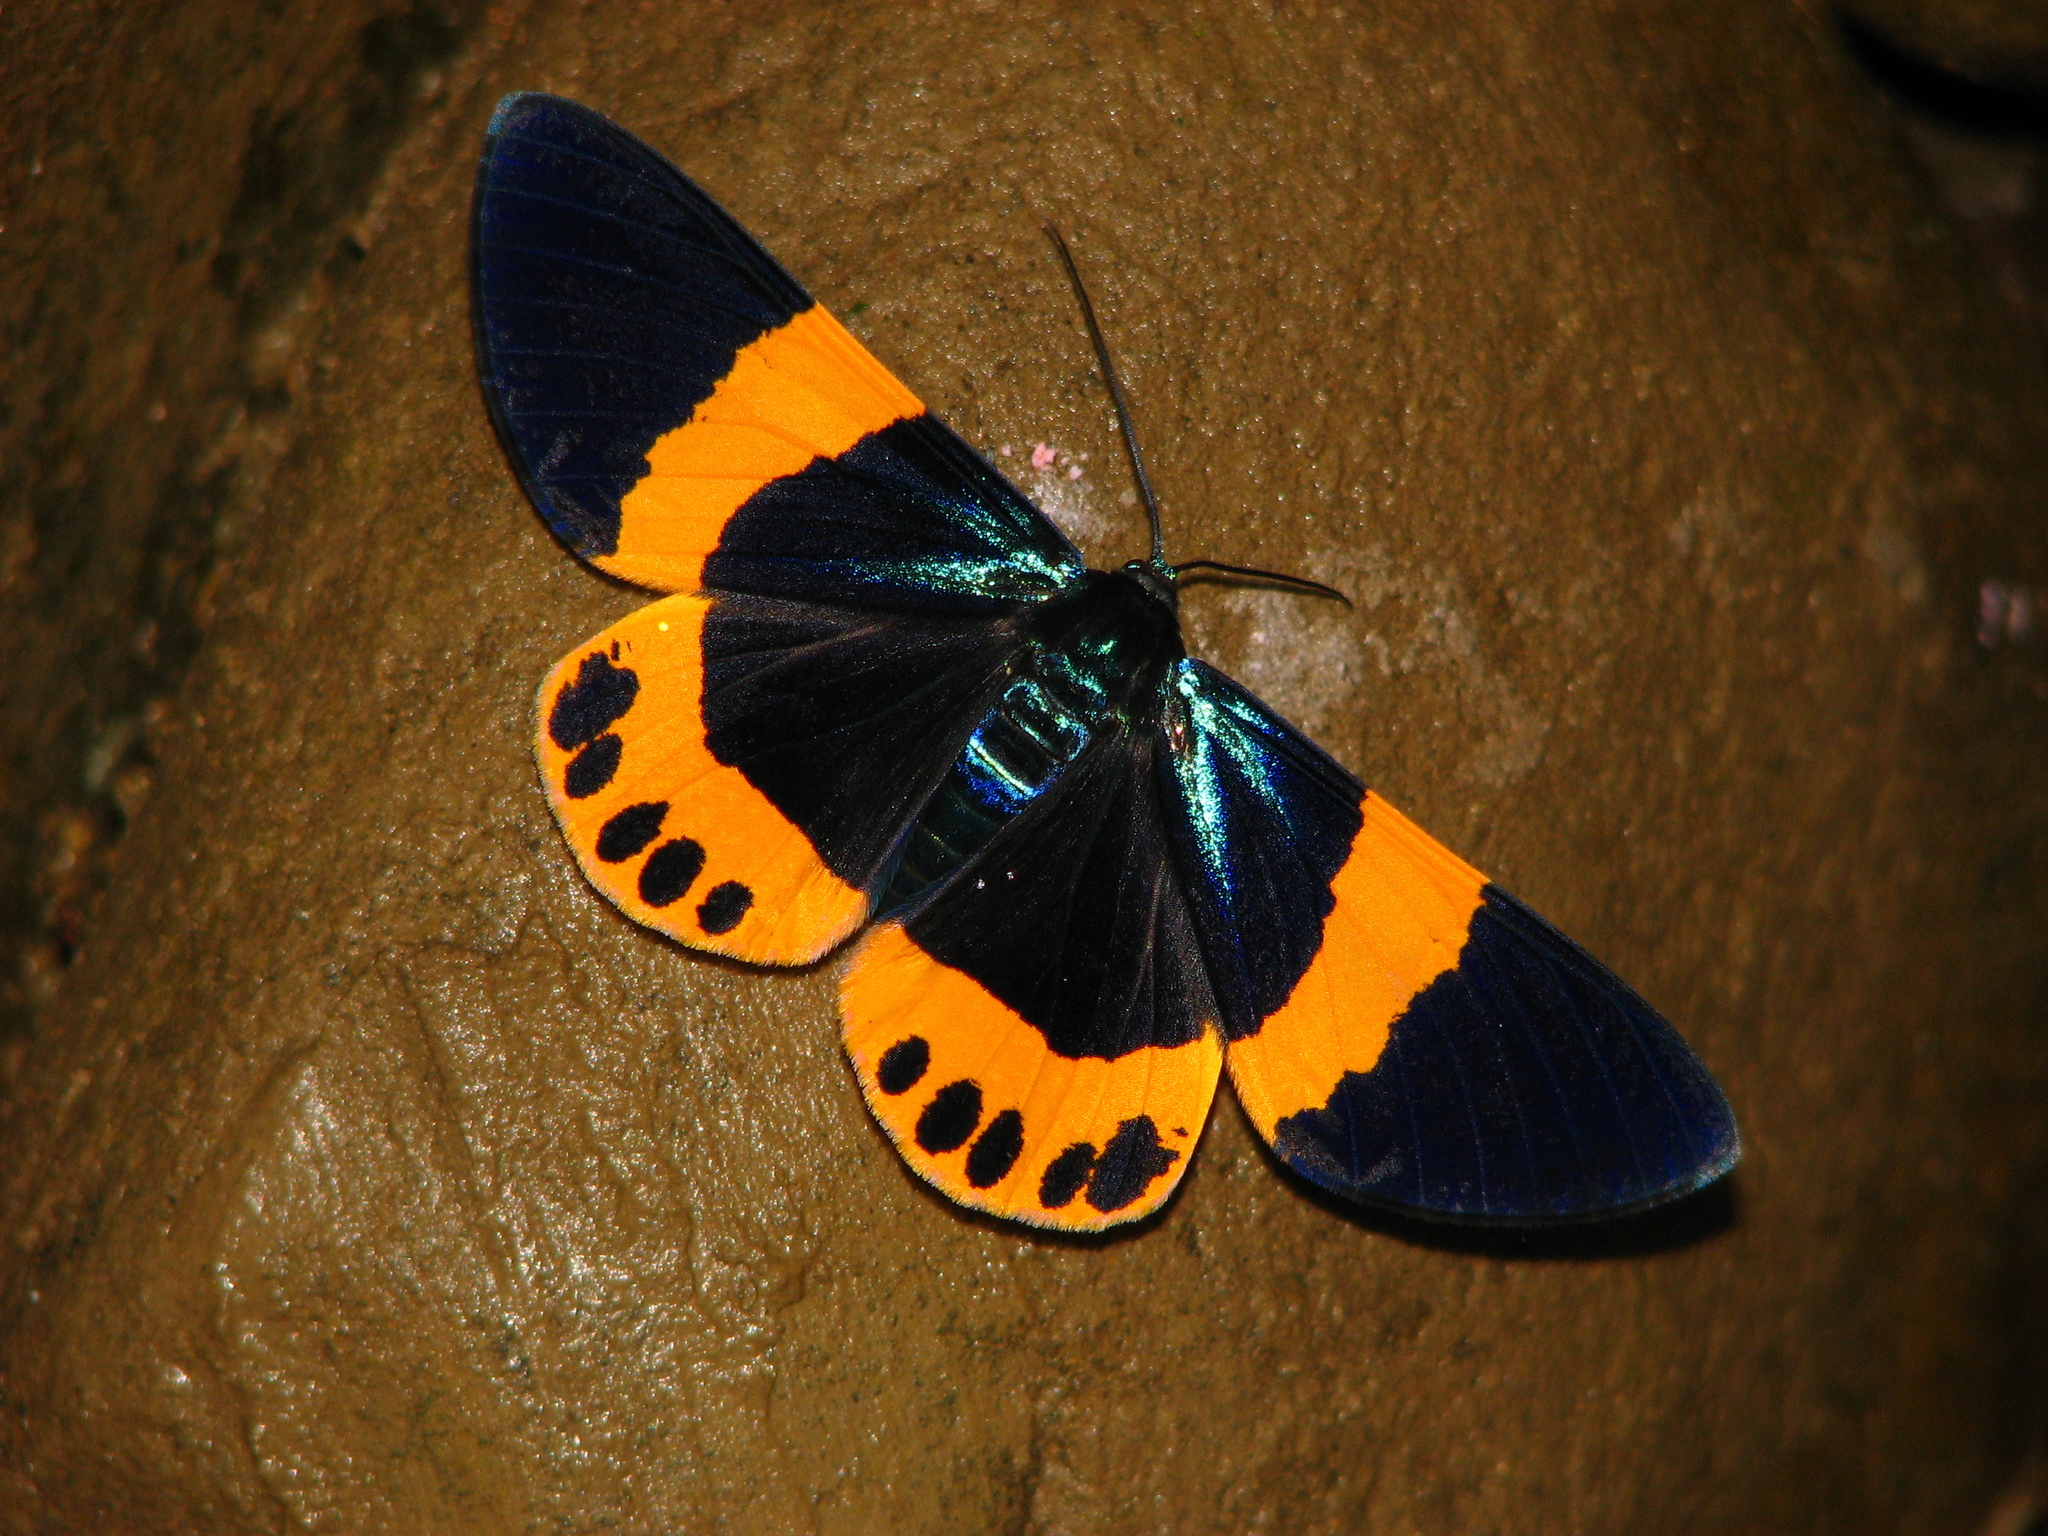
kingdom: Animalia
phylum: Arthropoda
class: Insecta
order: Lepidoptera
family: Geometridae
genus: Milionia
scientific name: Milionia basalis
